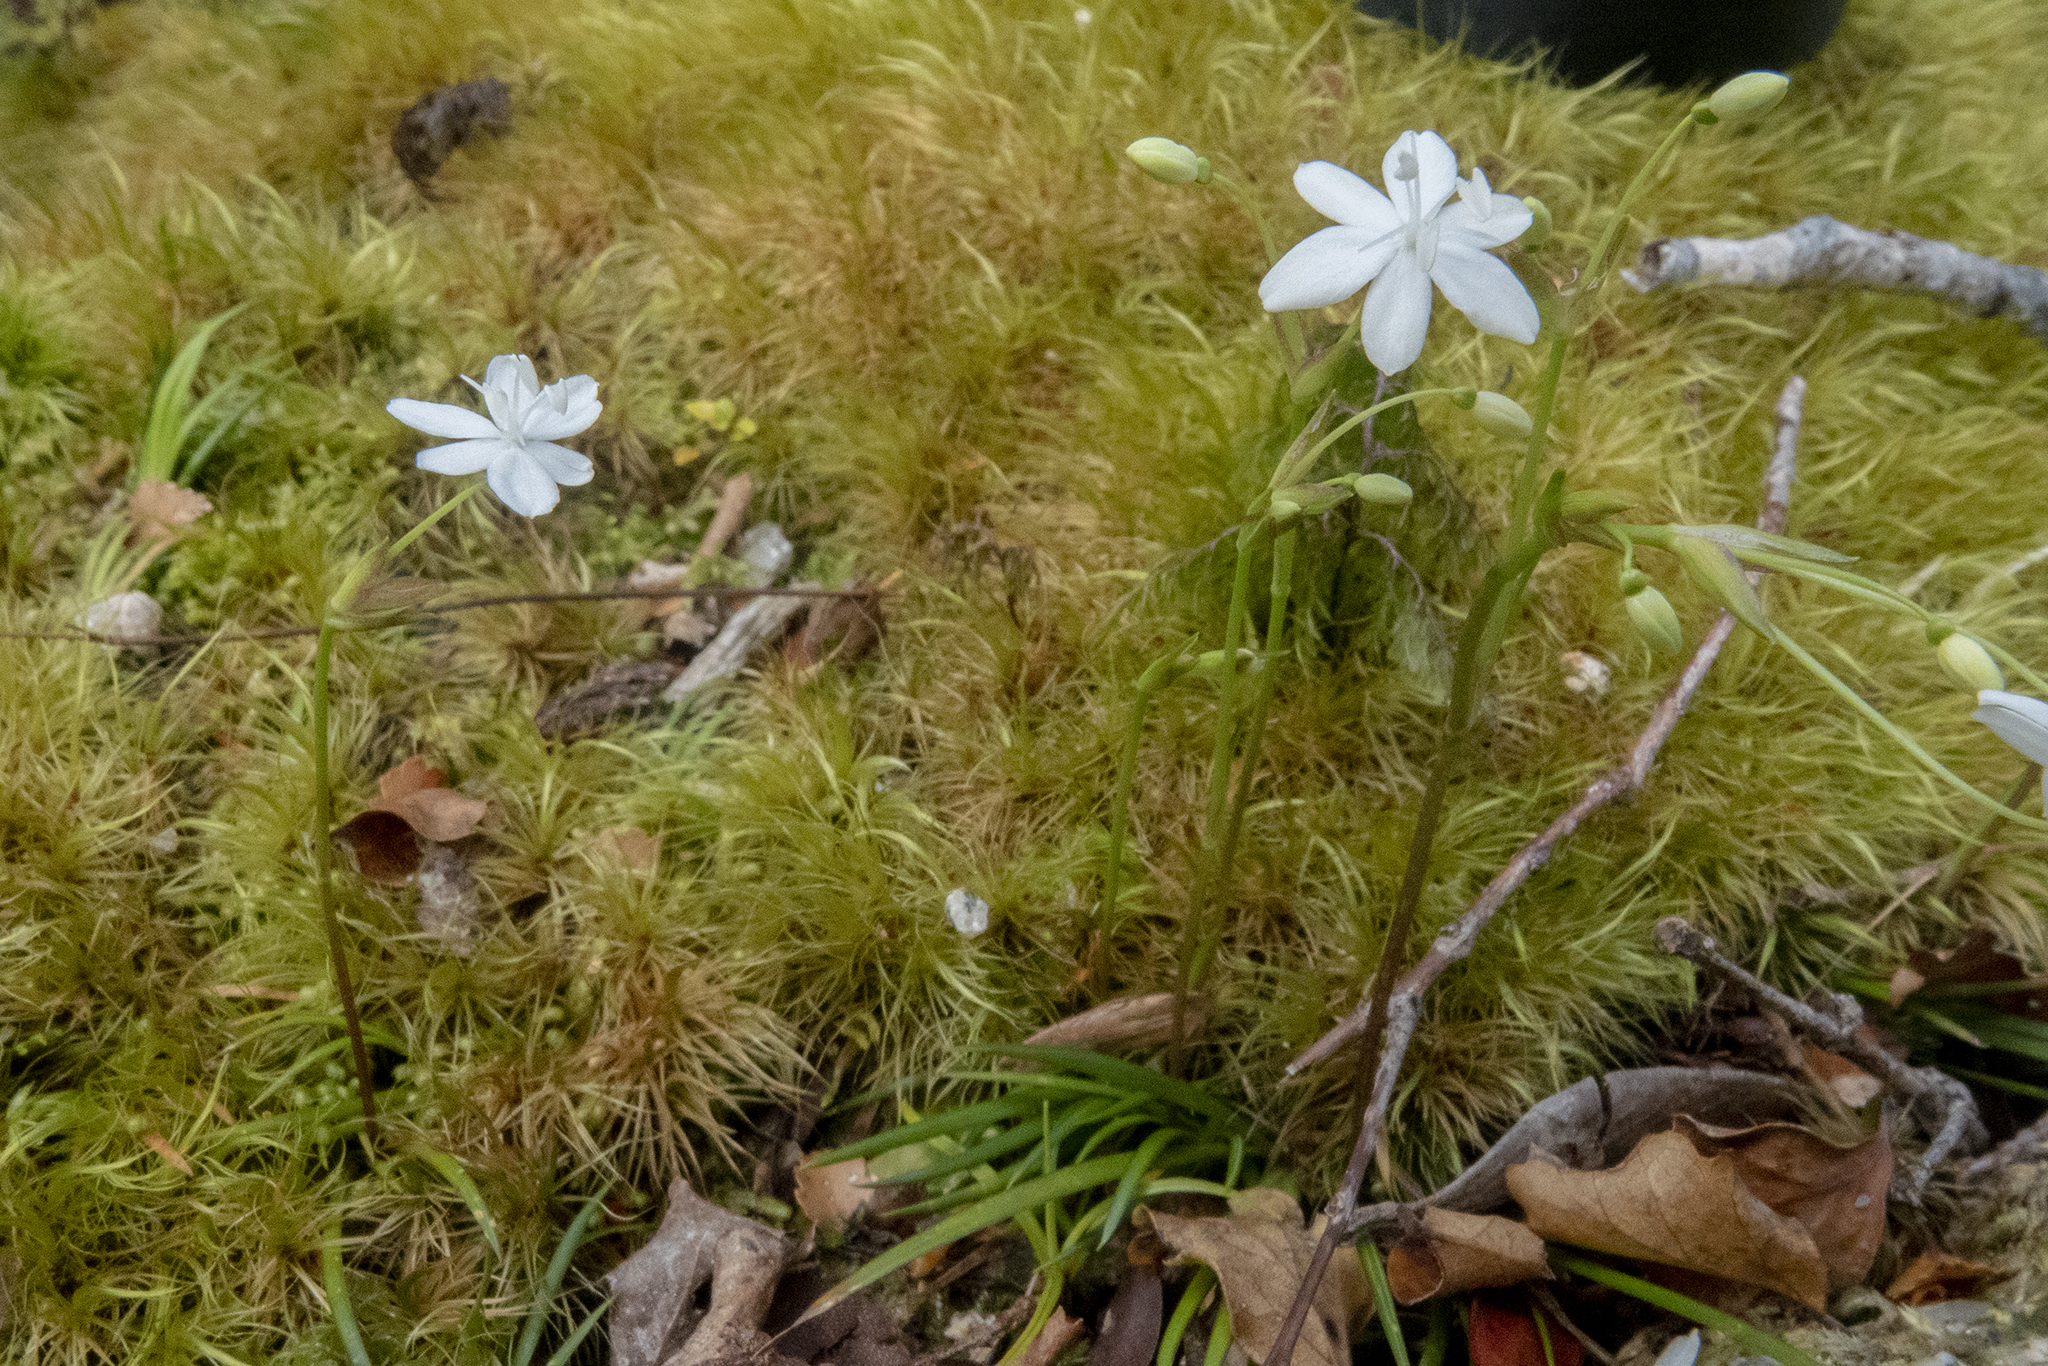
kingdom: Plantae
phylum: Tracheophyta
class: Liliopsida
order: Asparagales
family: Iridaceae
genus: Libertia
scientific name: Libertia micrantha
